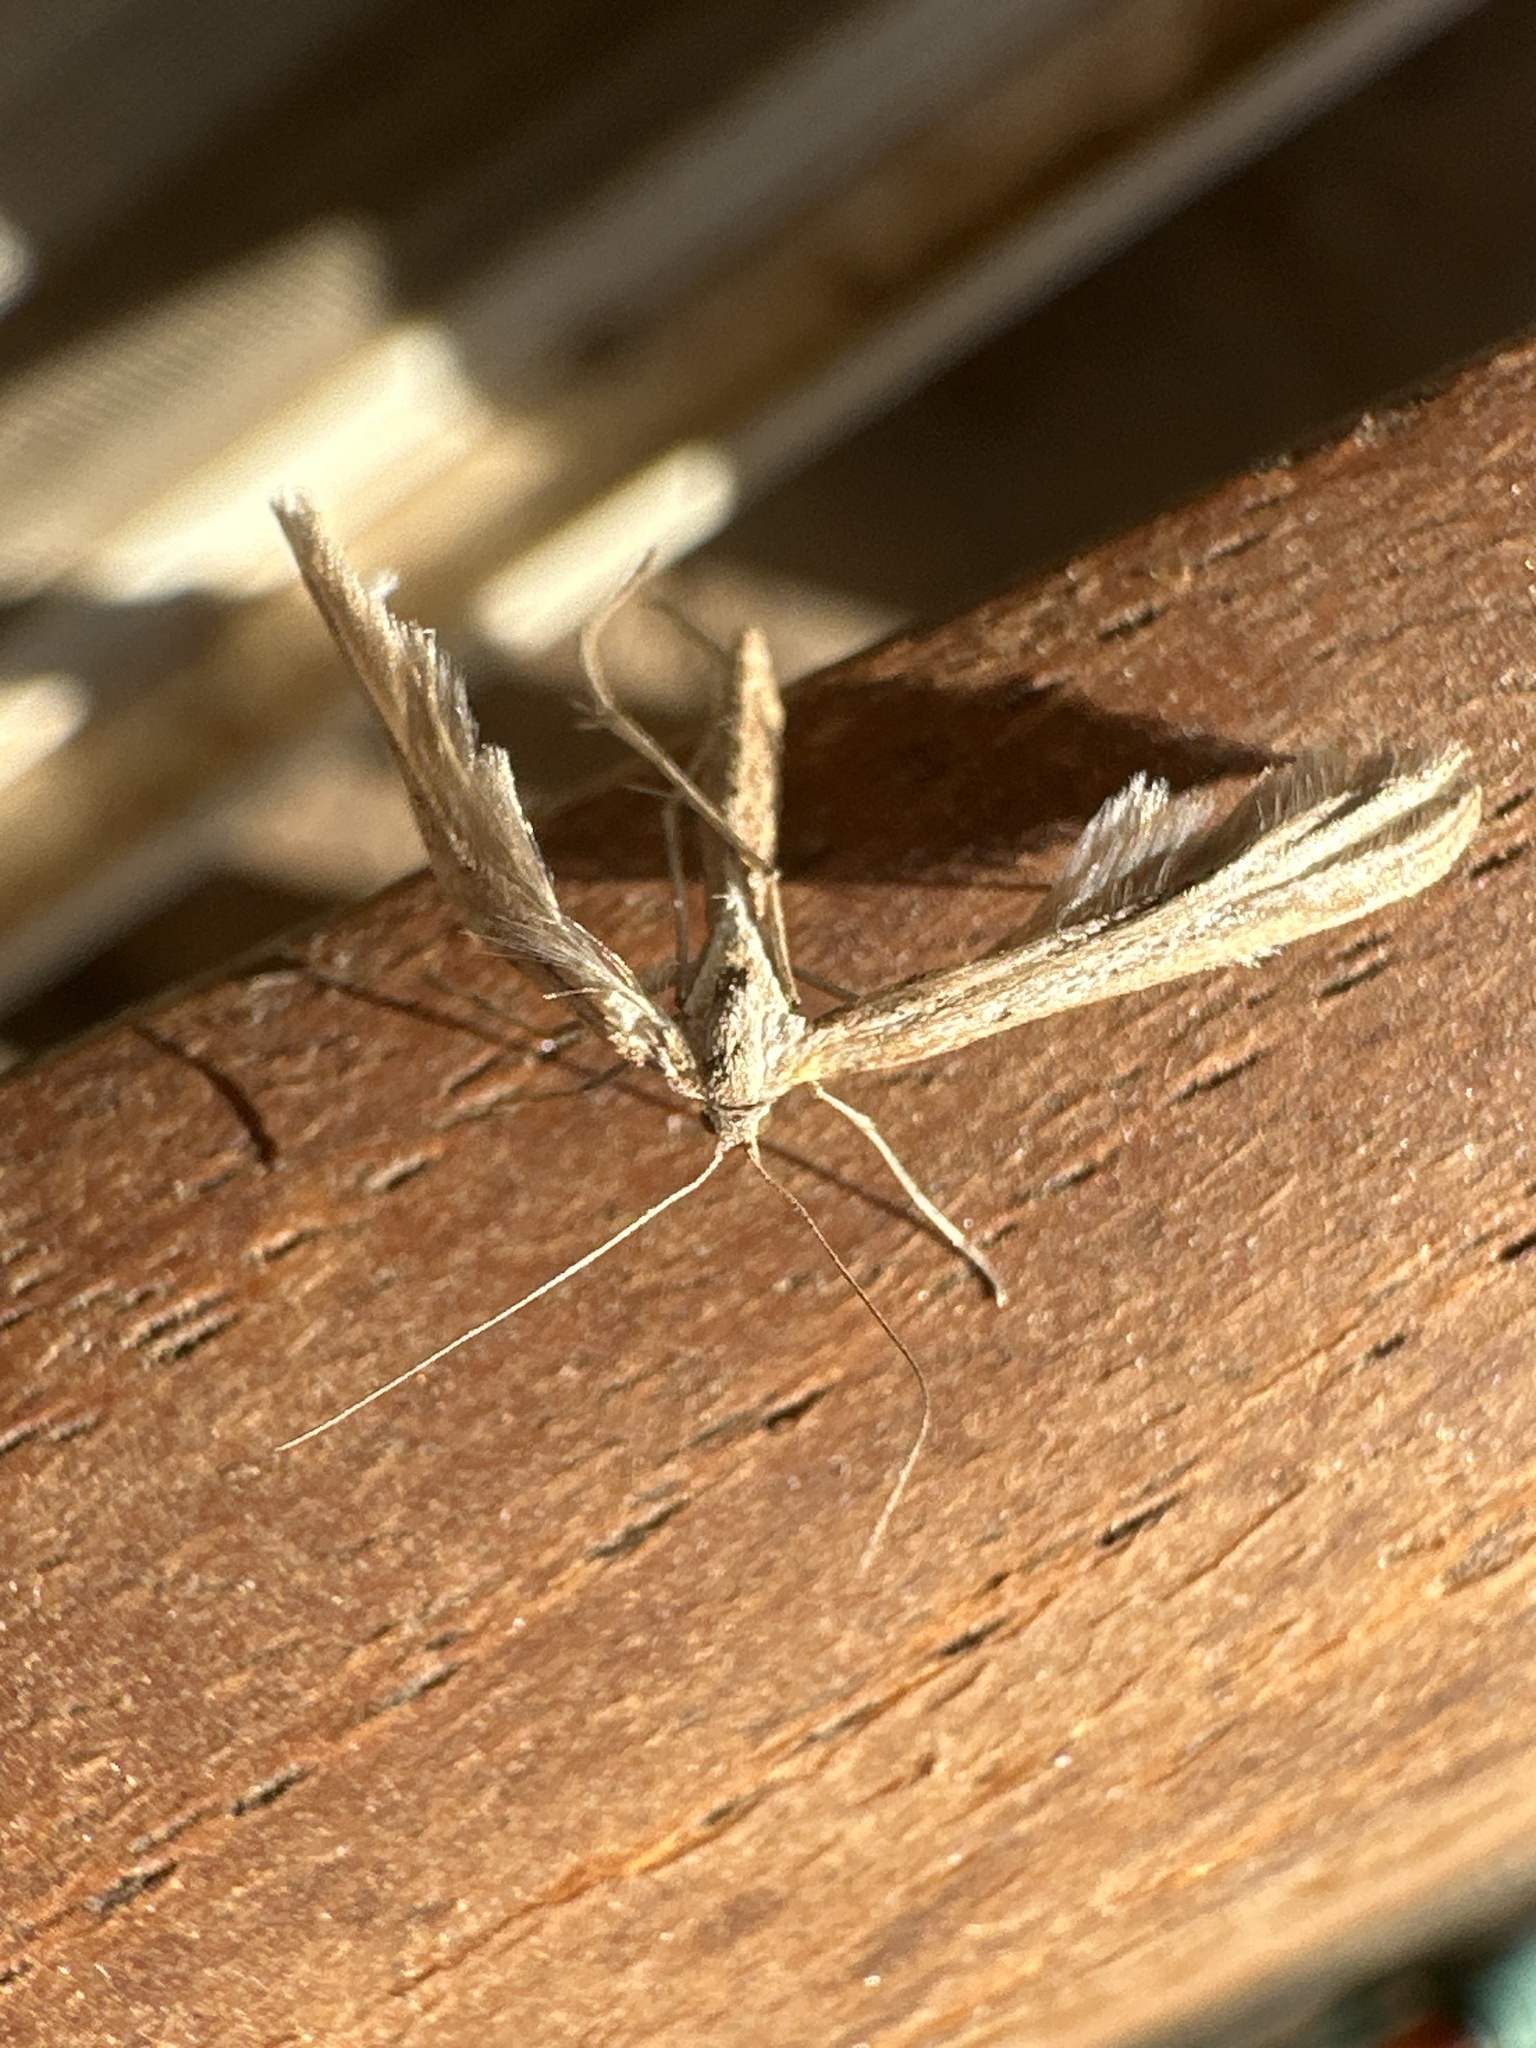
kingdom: Animalia
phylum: Arthropoda
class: Insecta
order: Lepidoptera
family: Pterophoridae
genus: Emmelina
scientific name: Emmelina monodactyla
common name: Common plume
